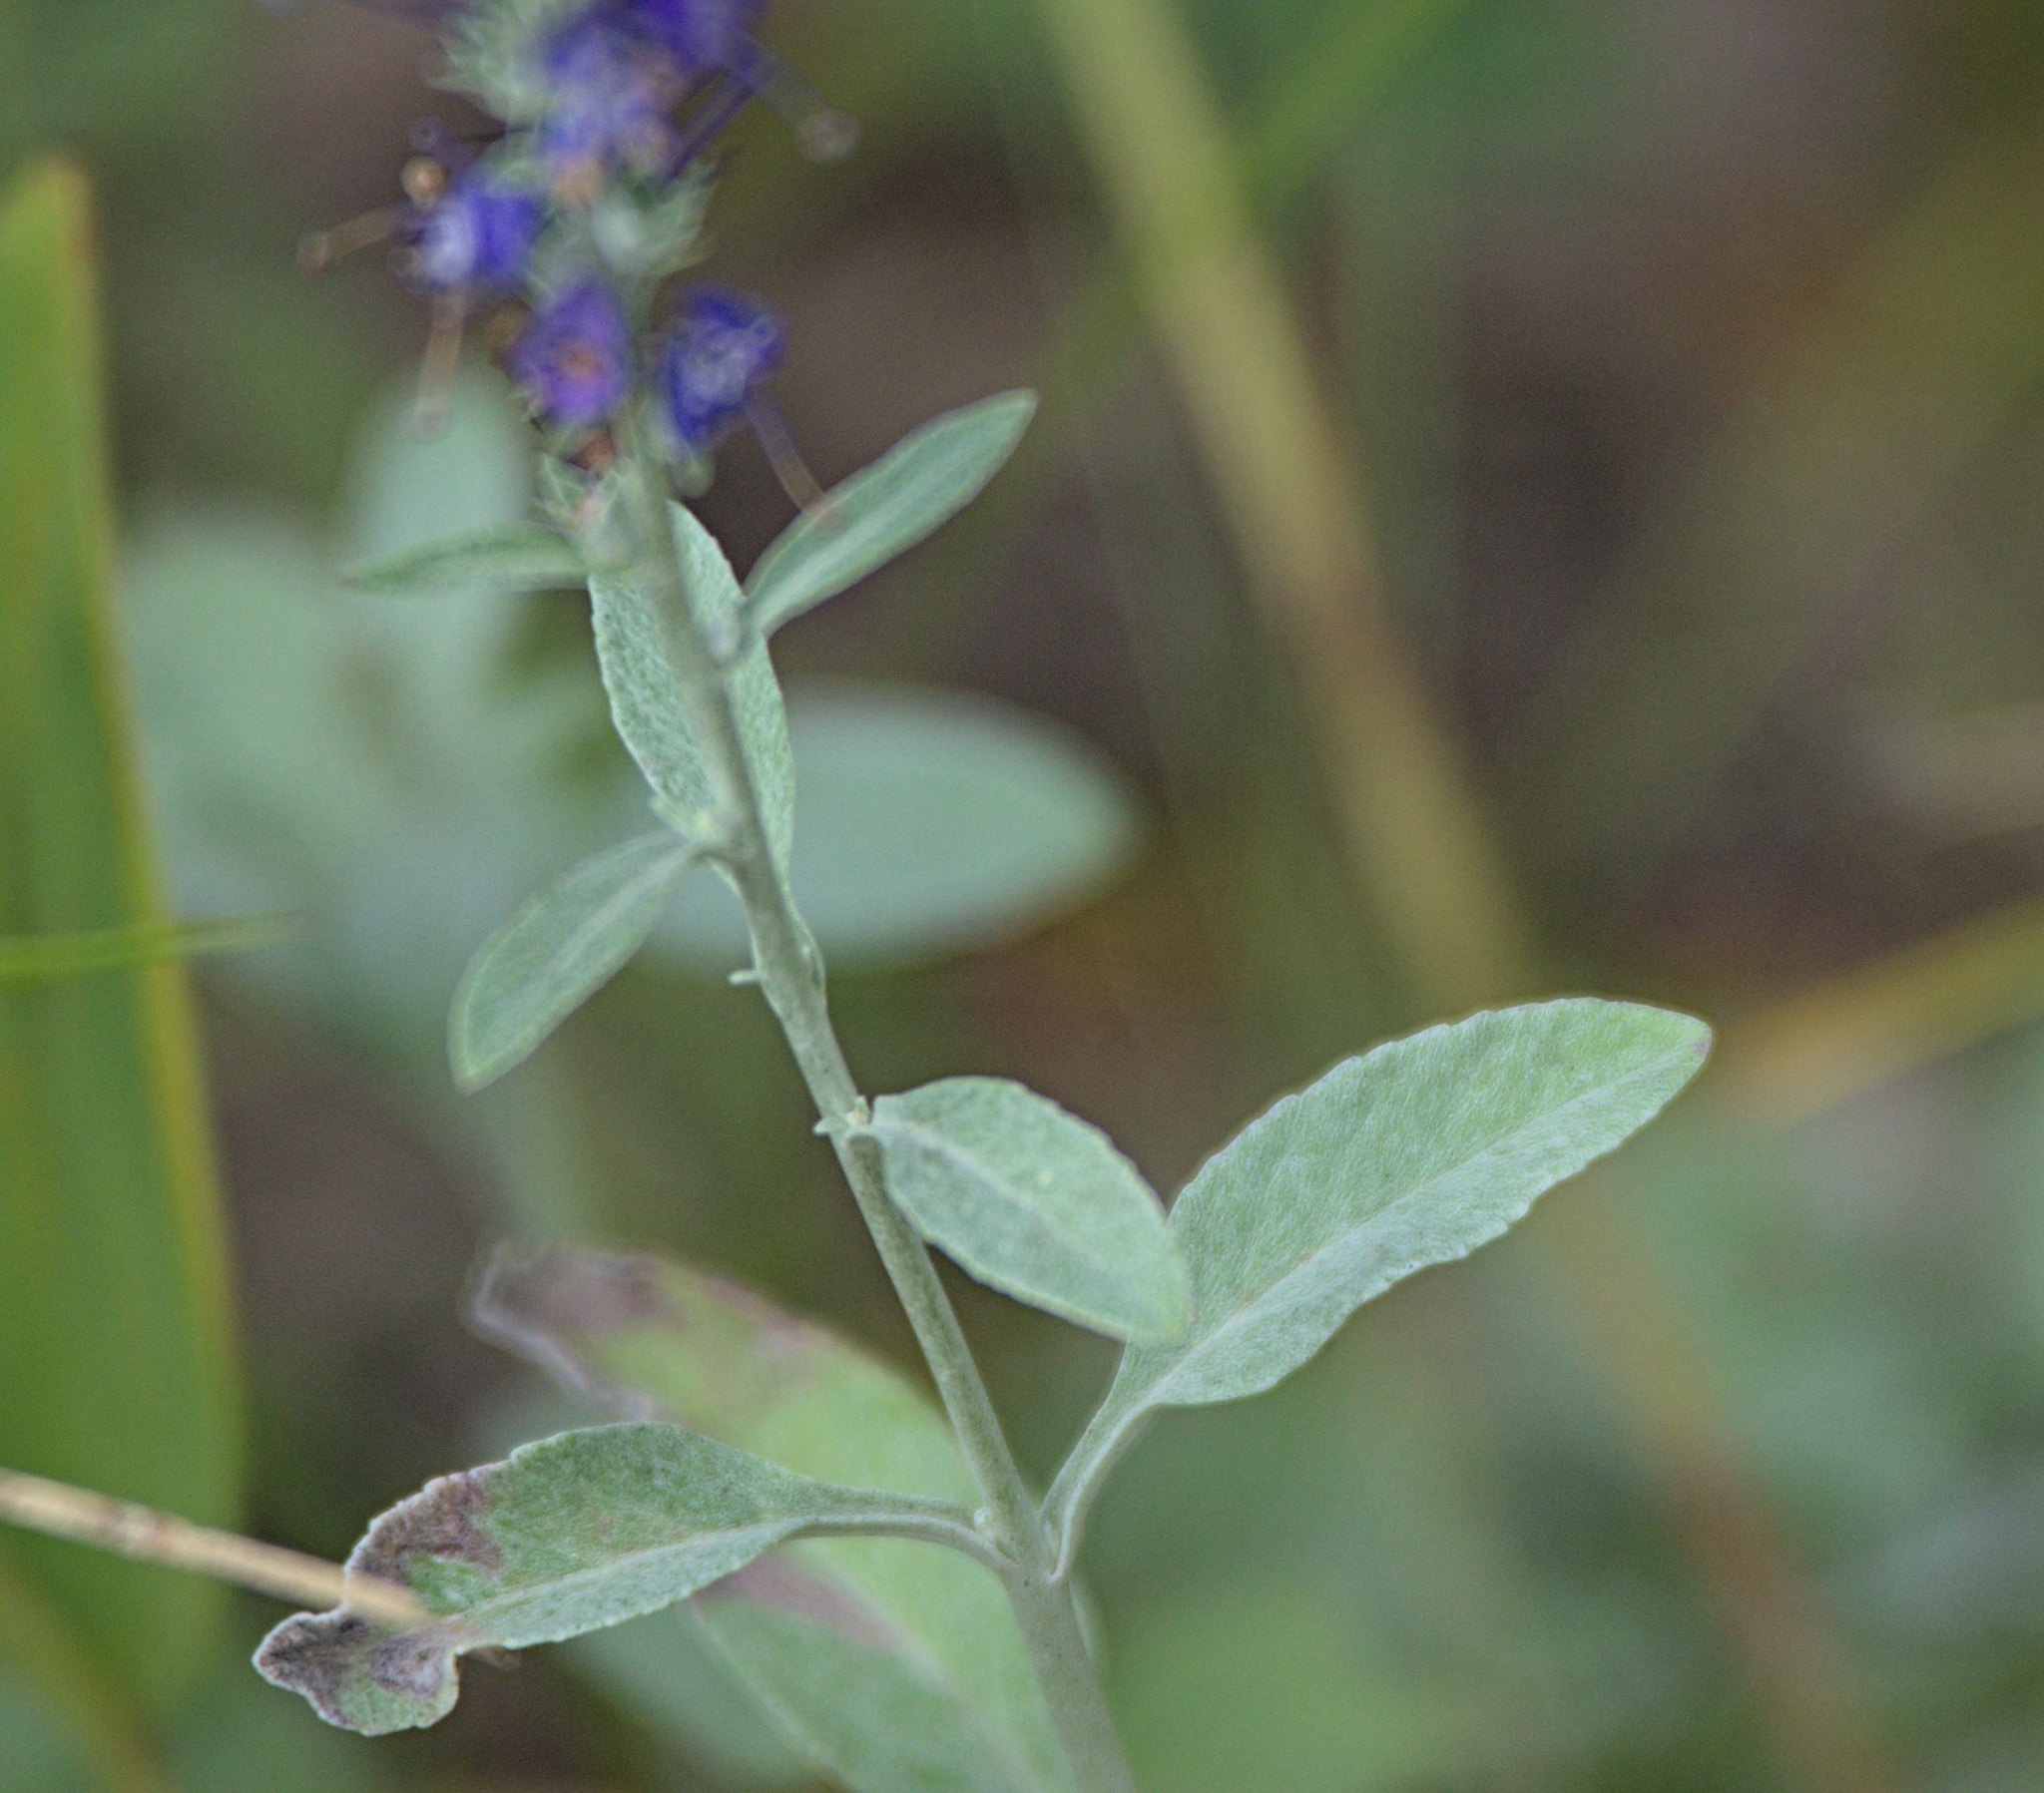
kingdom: Plantae
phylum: Tracheophyta
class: Magnoliopsida
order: Lamiales
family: Plantaginaceae
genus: Veronica
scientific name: Veronica incana
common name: Silver speedwell
